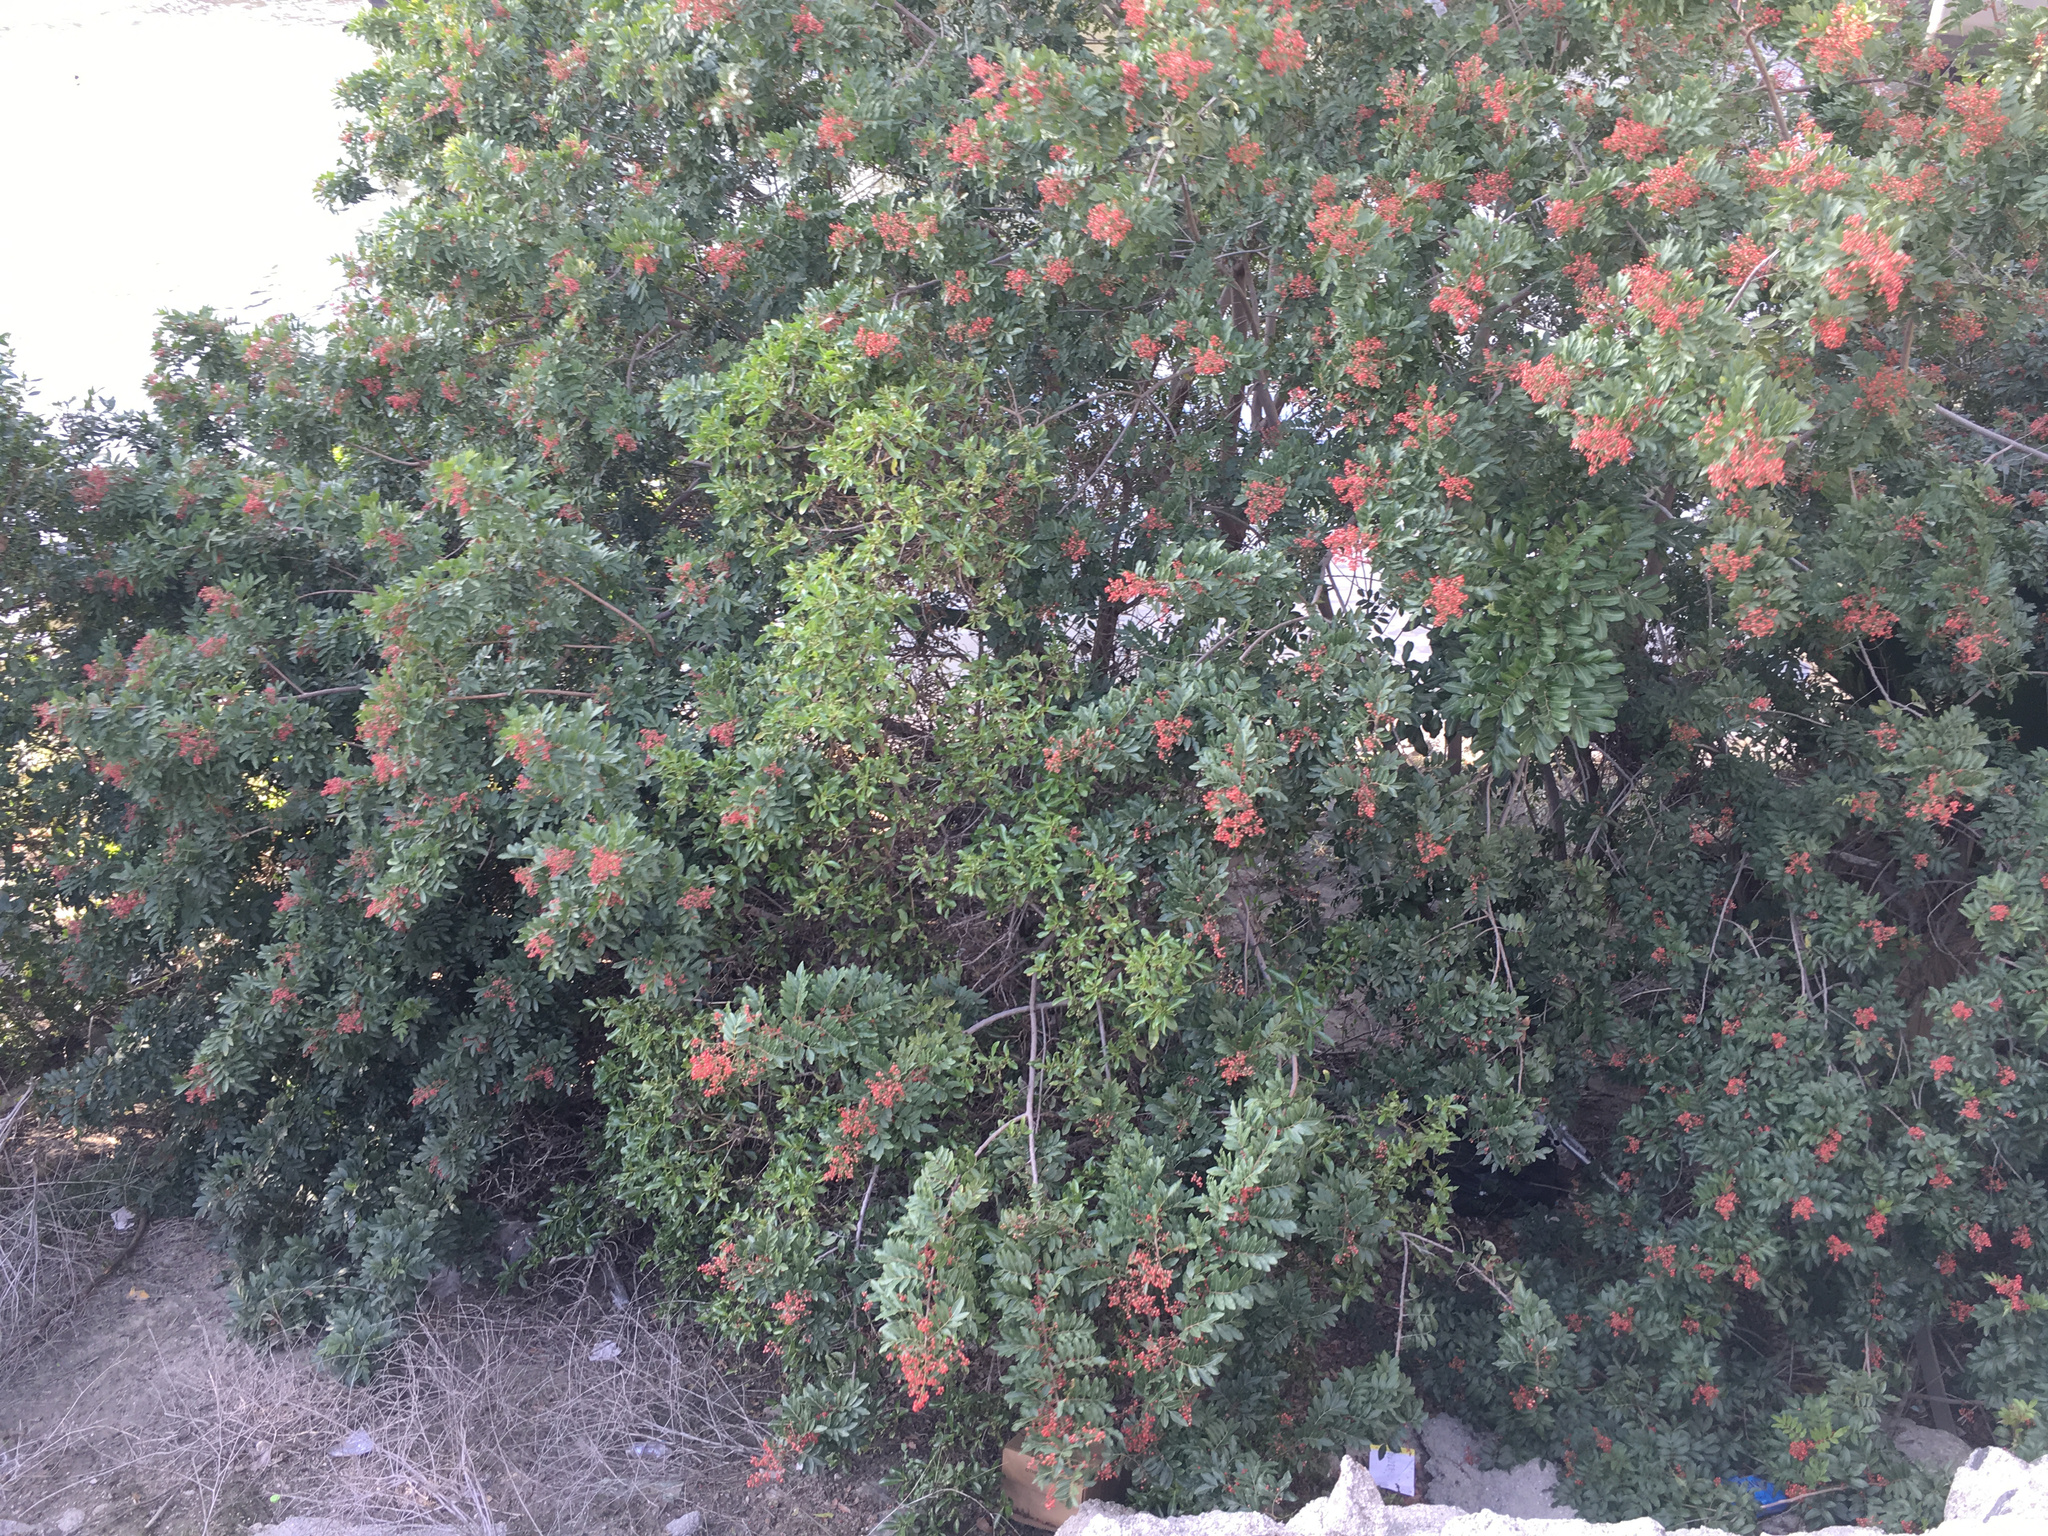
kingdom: Plantae
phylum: Tracheophyta
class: Magnoliopsida
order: Sapindales
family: Anacardiaceae
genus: Schinus
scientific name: Schinus terebinthifolia
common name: Brazilian peppertree
